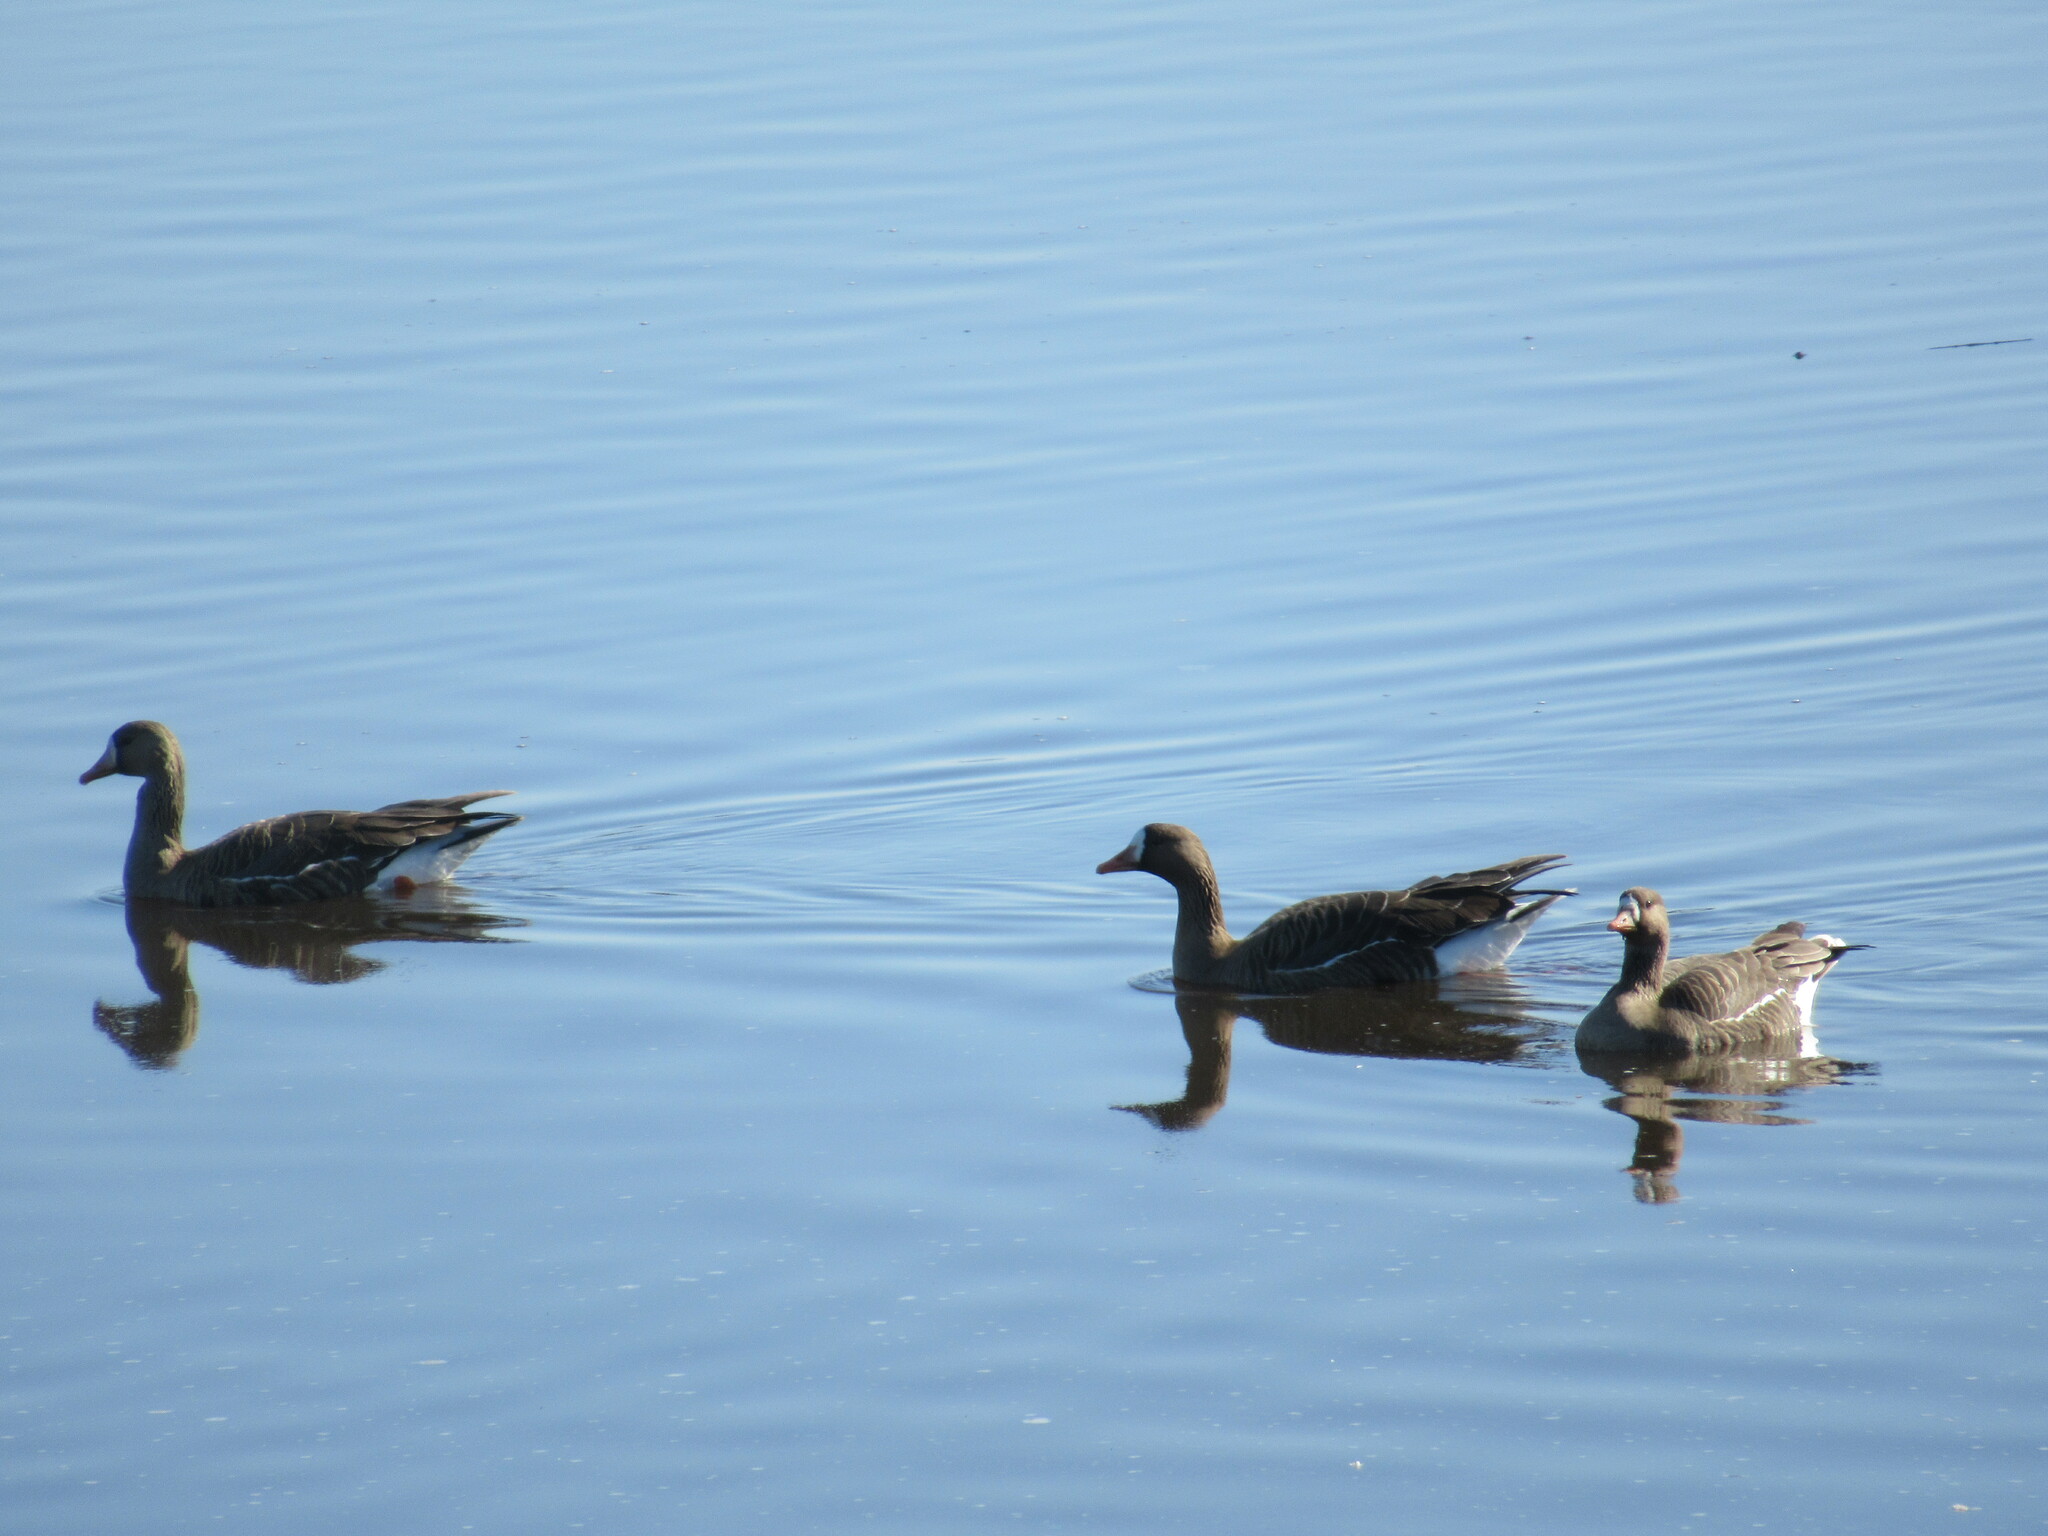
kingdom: Animalia
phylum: Chordata
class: Aves
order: Anseriformes
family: Anatidae
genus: Anser
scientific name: Anser albifrons
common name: Greater white-fronted goose
